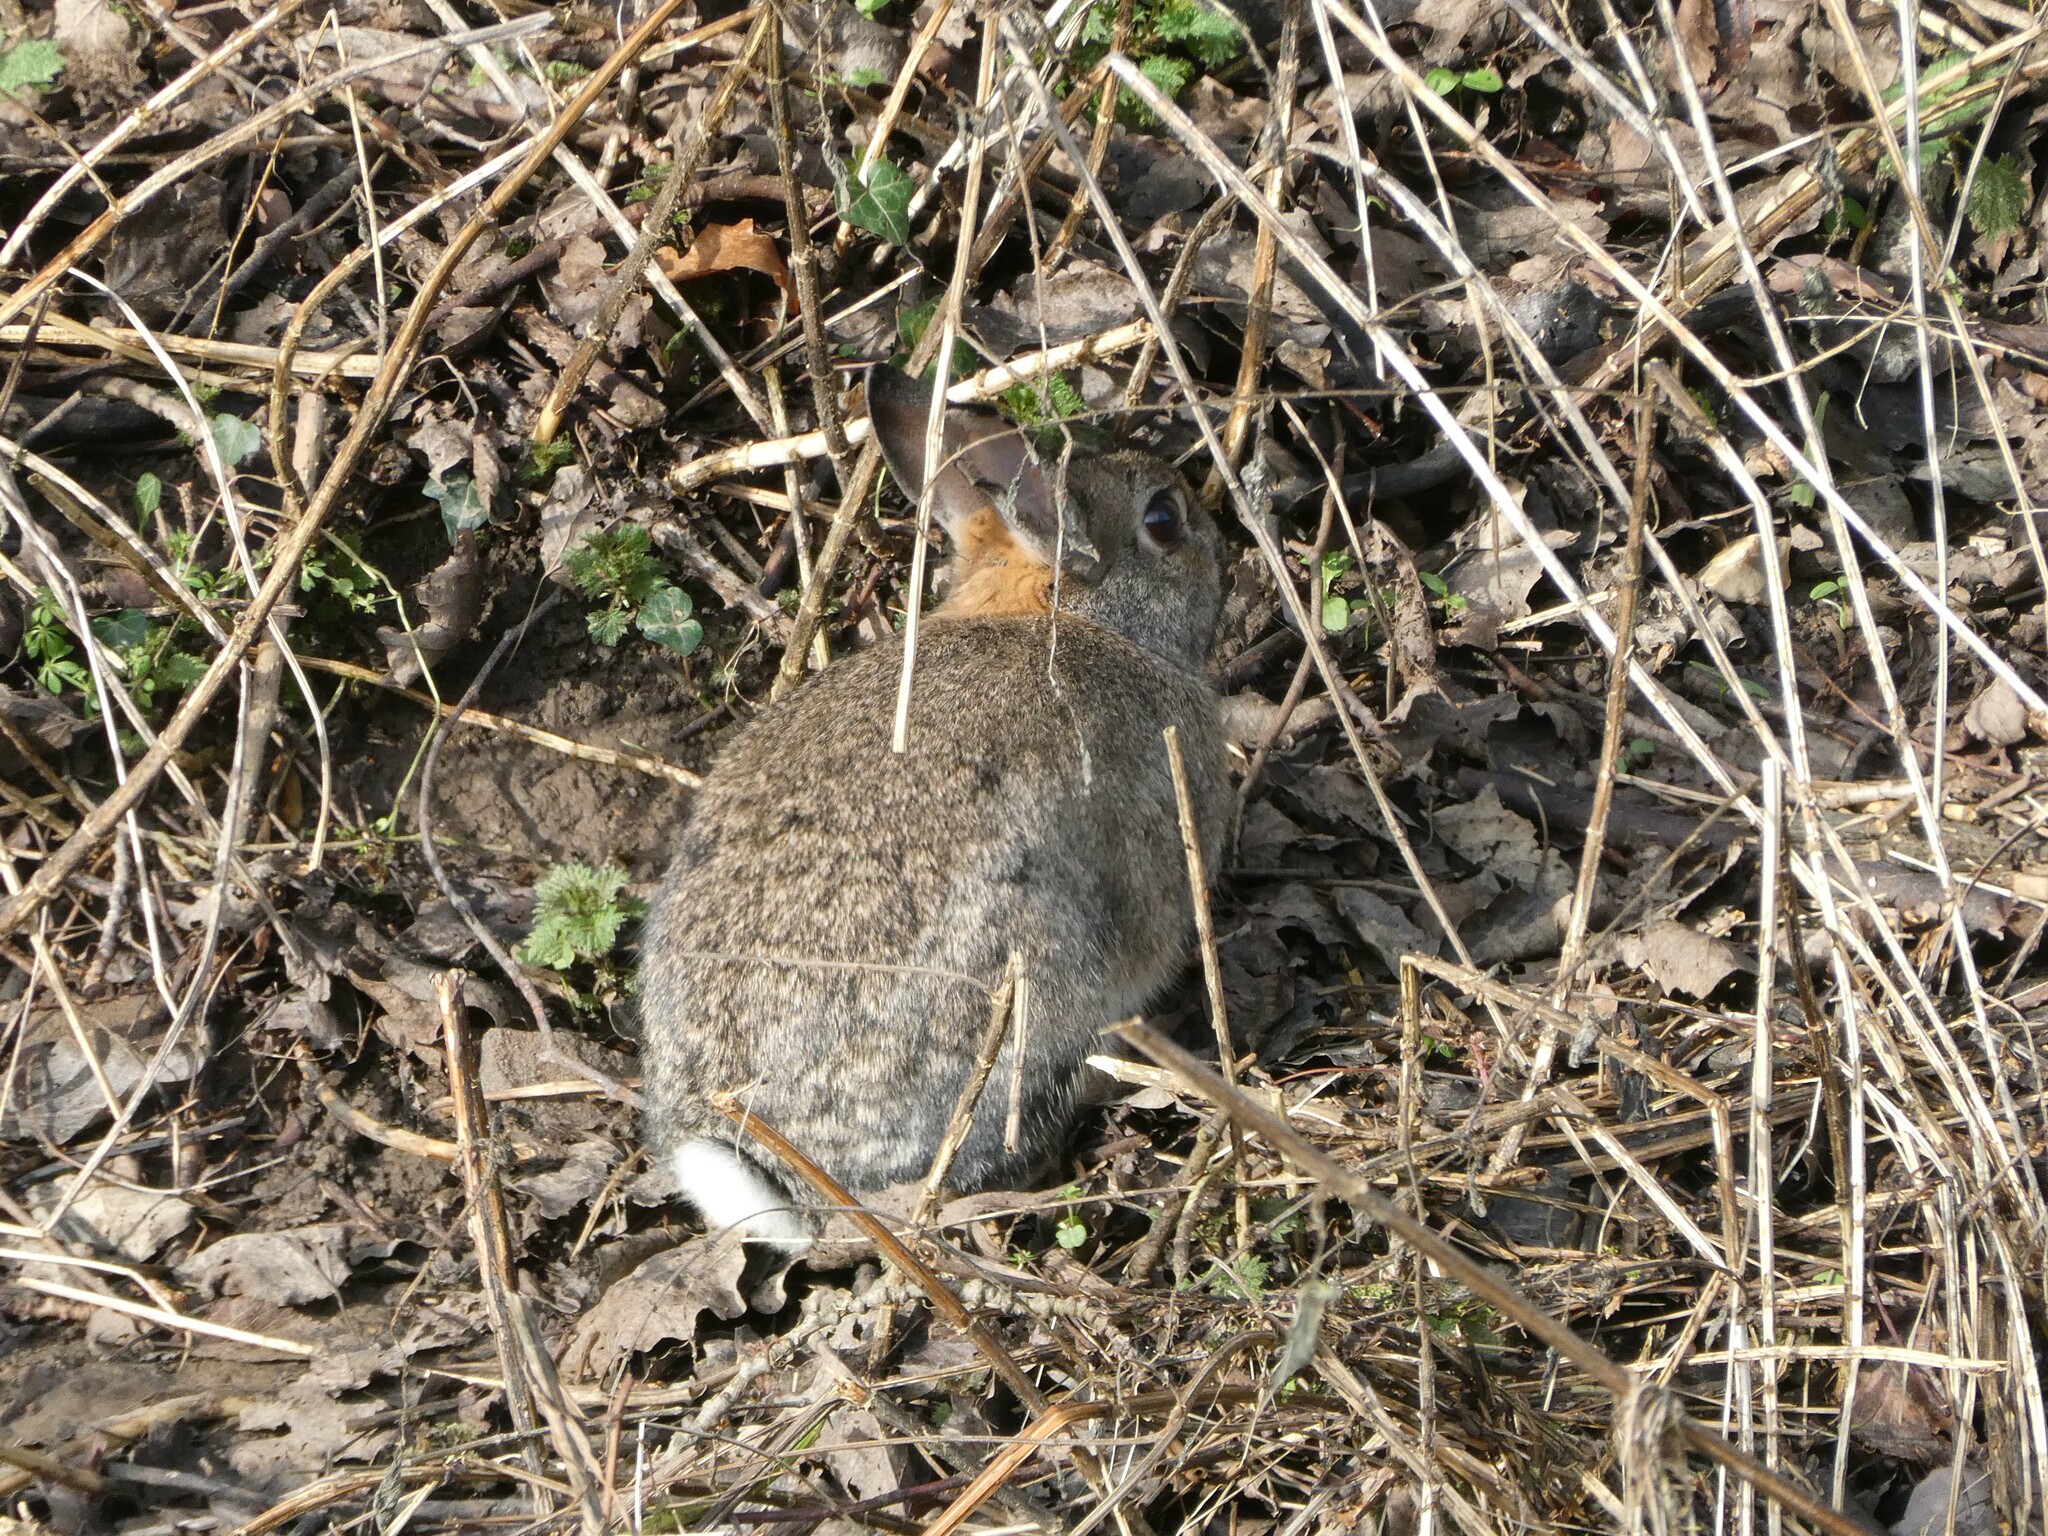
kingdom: Animalia
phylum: Chordata
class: Mammalia
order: Lagomorpha
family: Leporidae
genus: Oryctolagus
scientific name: Oryctolagus cuniculus
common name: European rabbit
